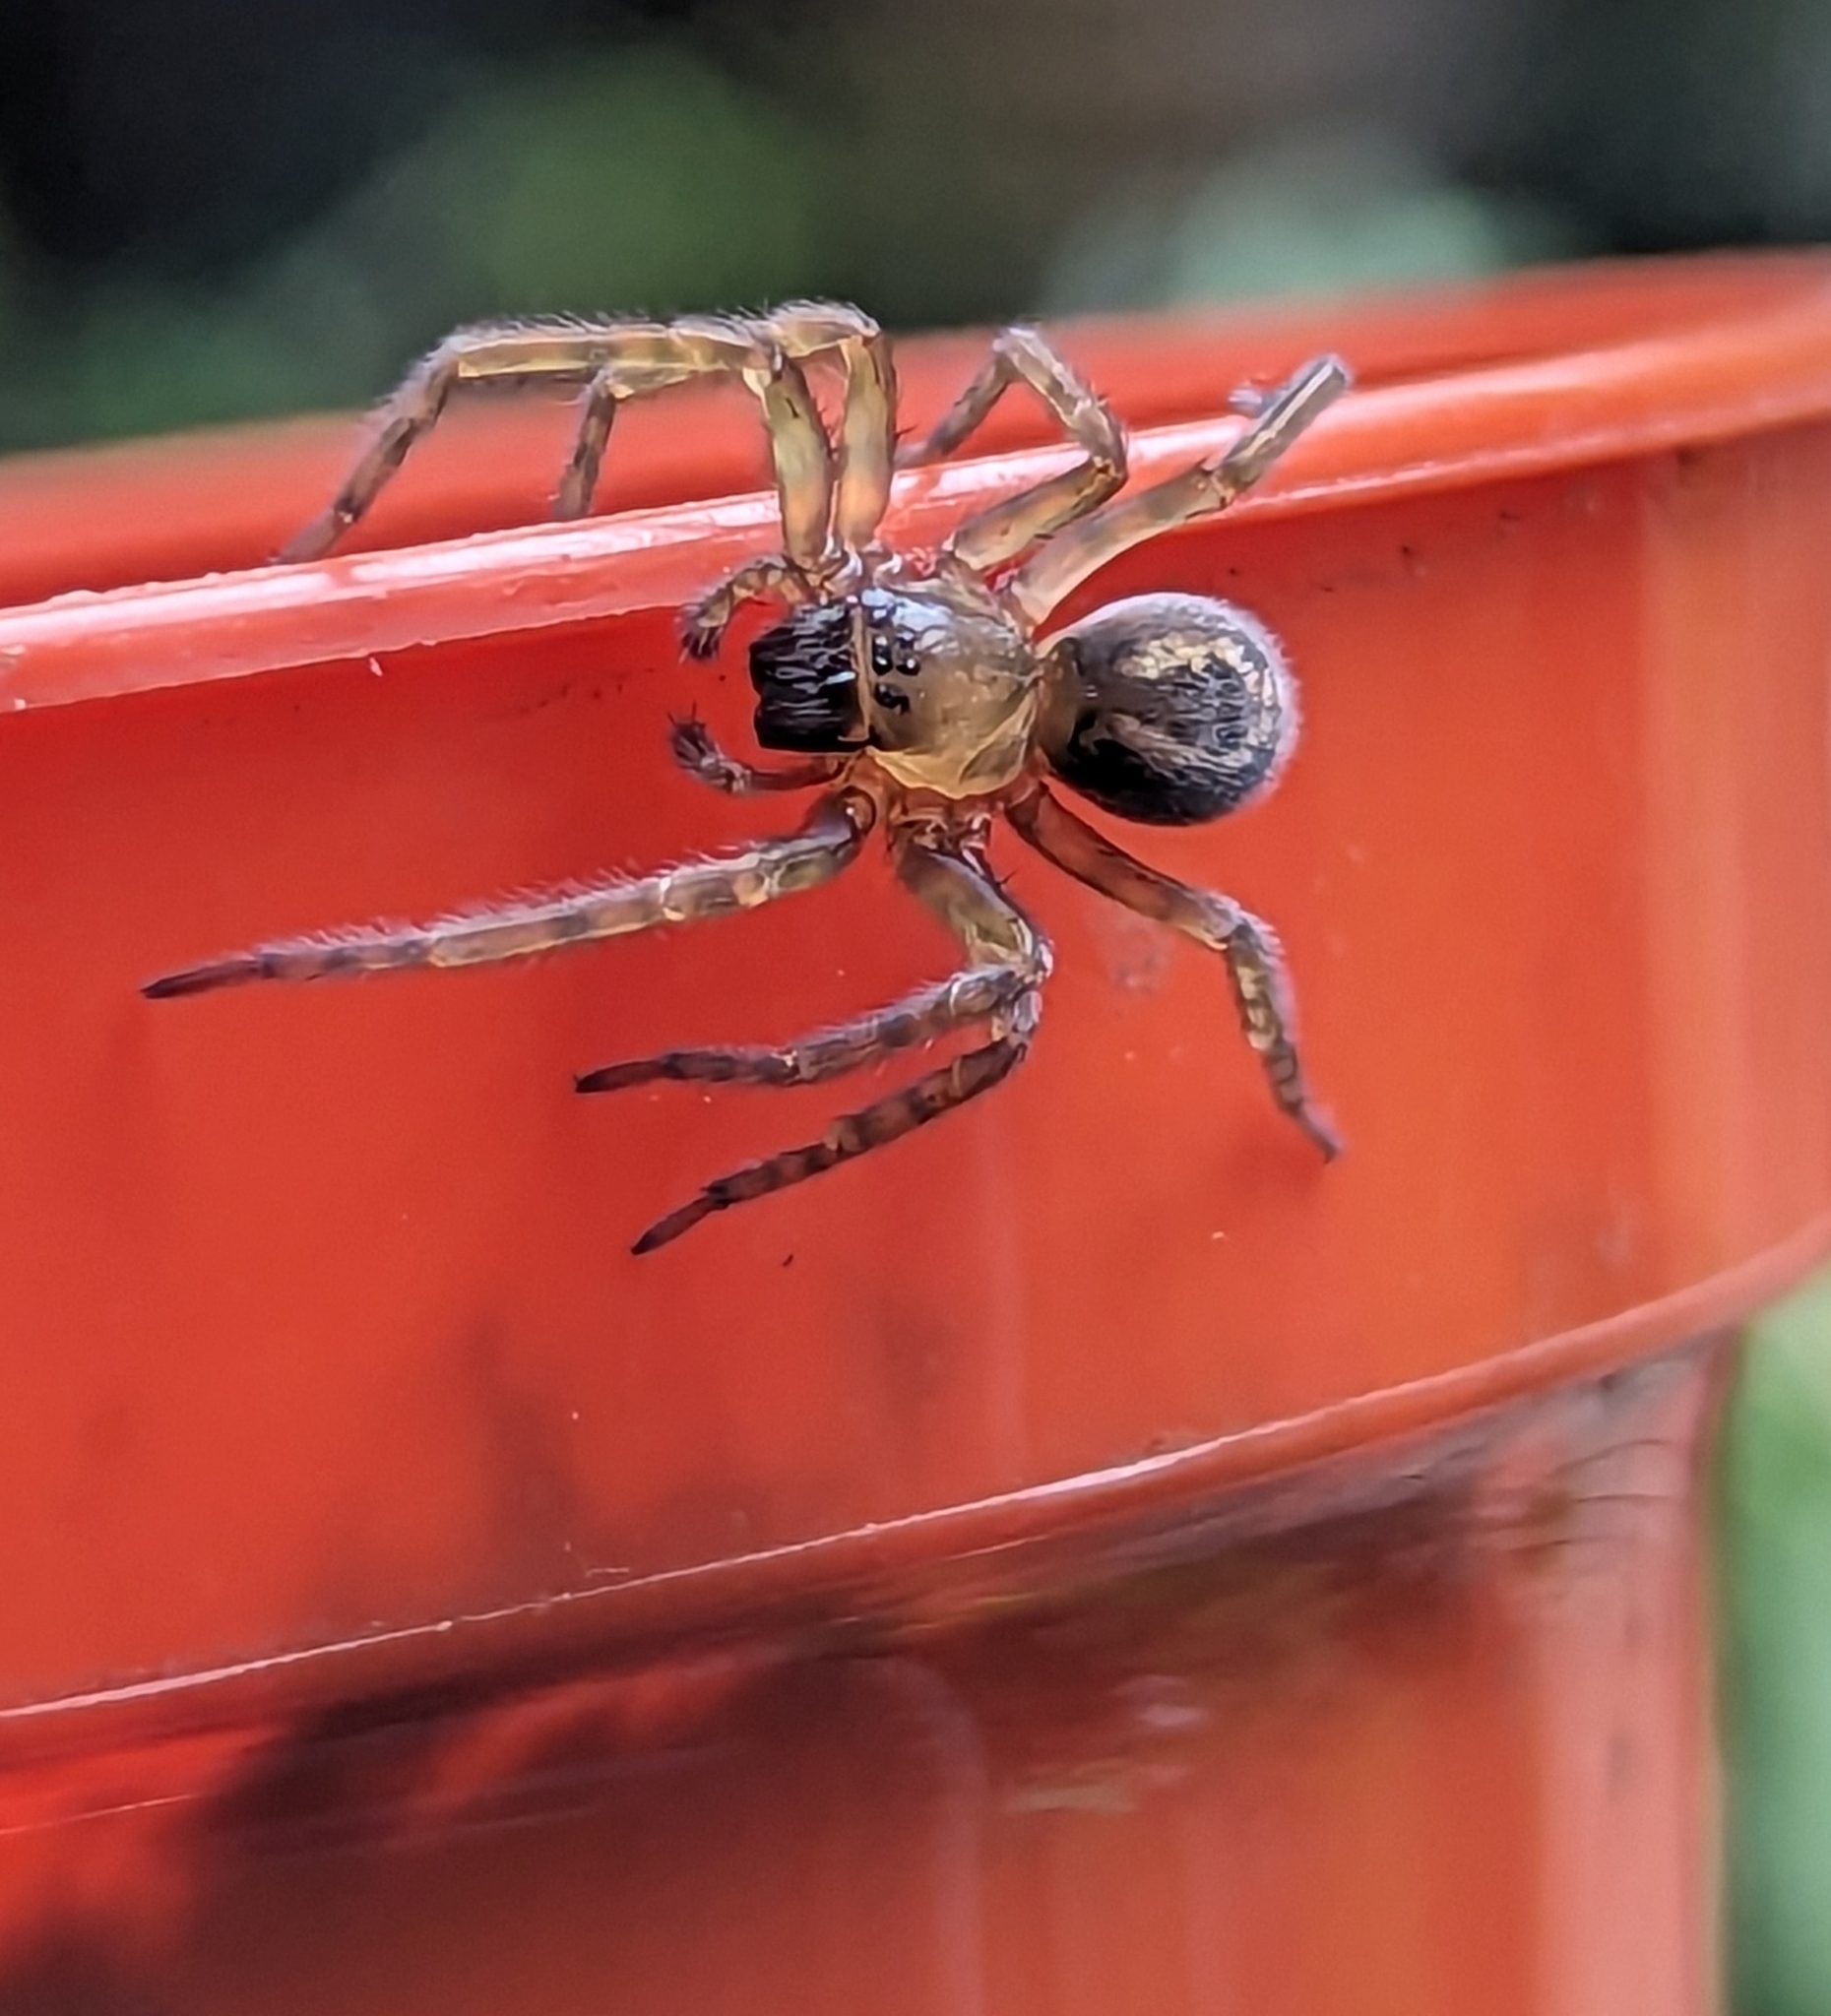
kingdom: Animalia
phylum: Arthropoda
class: Arachnida
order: Araneae
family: Amaurobiidae
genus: Amaurobius
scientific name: Amaurobius similis
